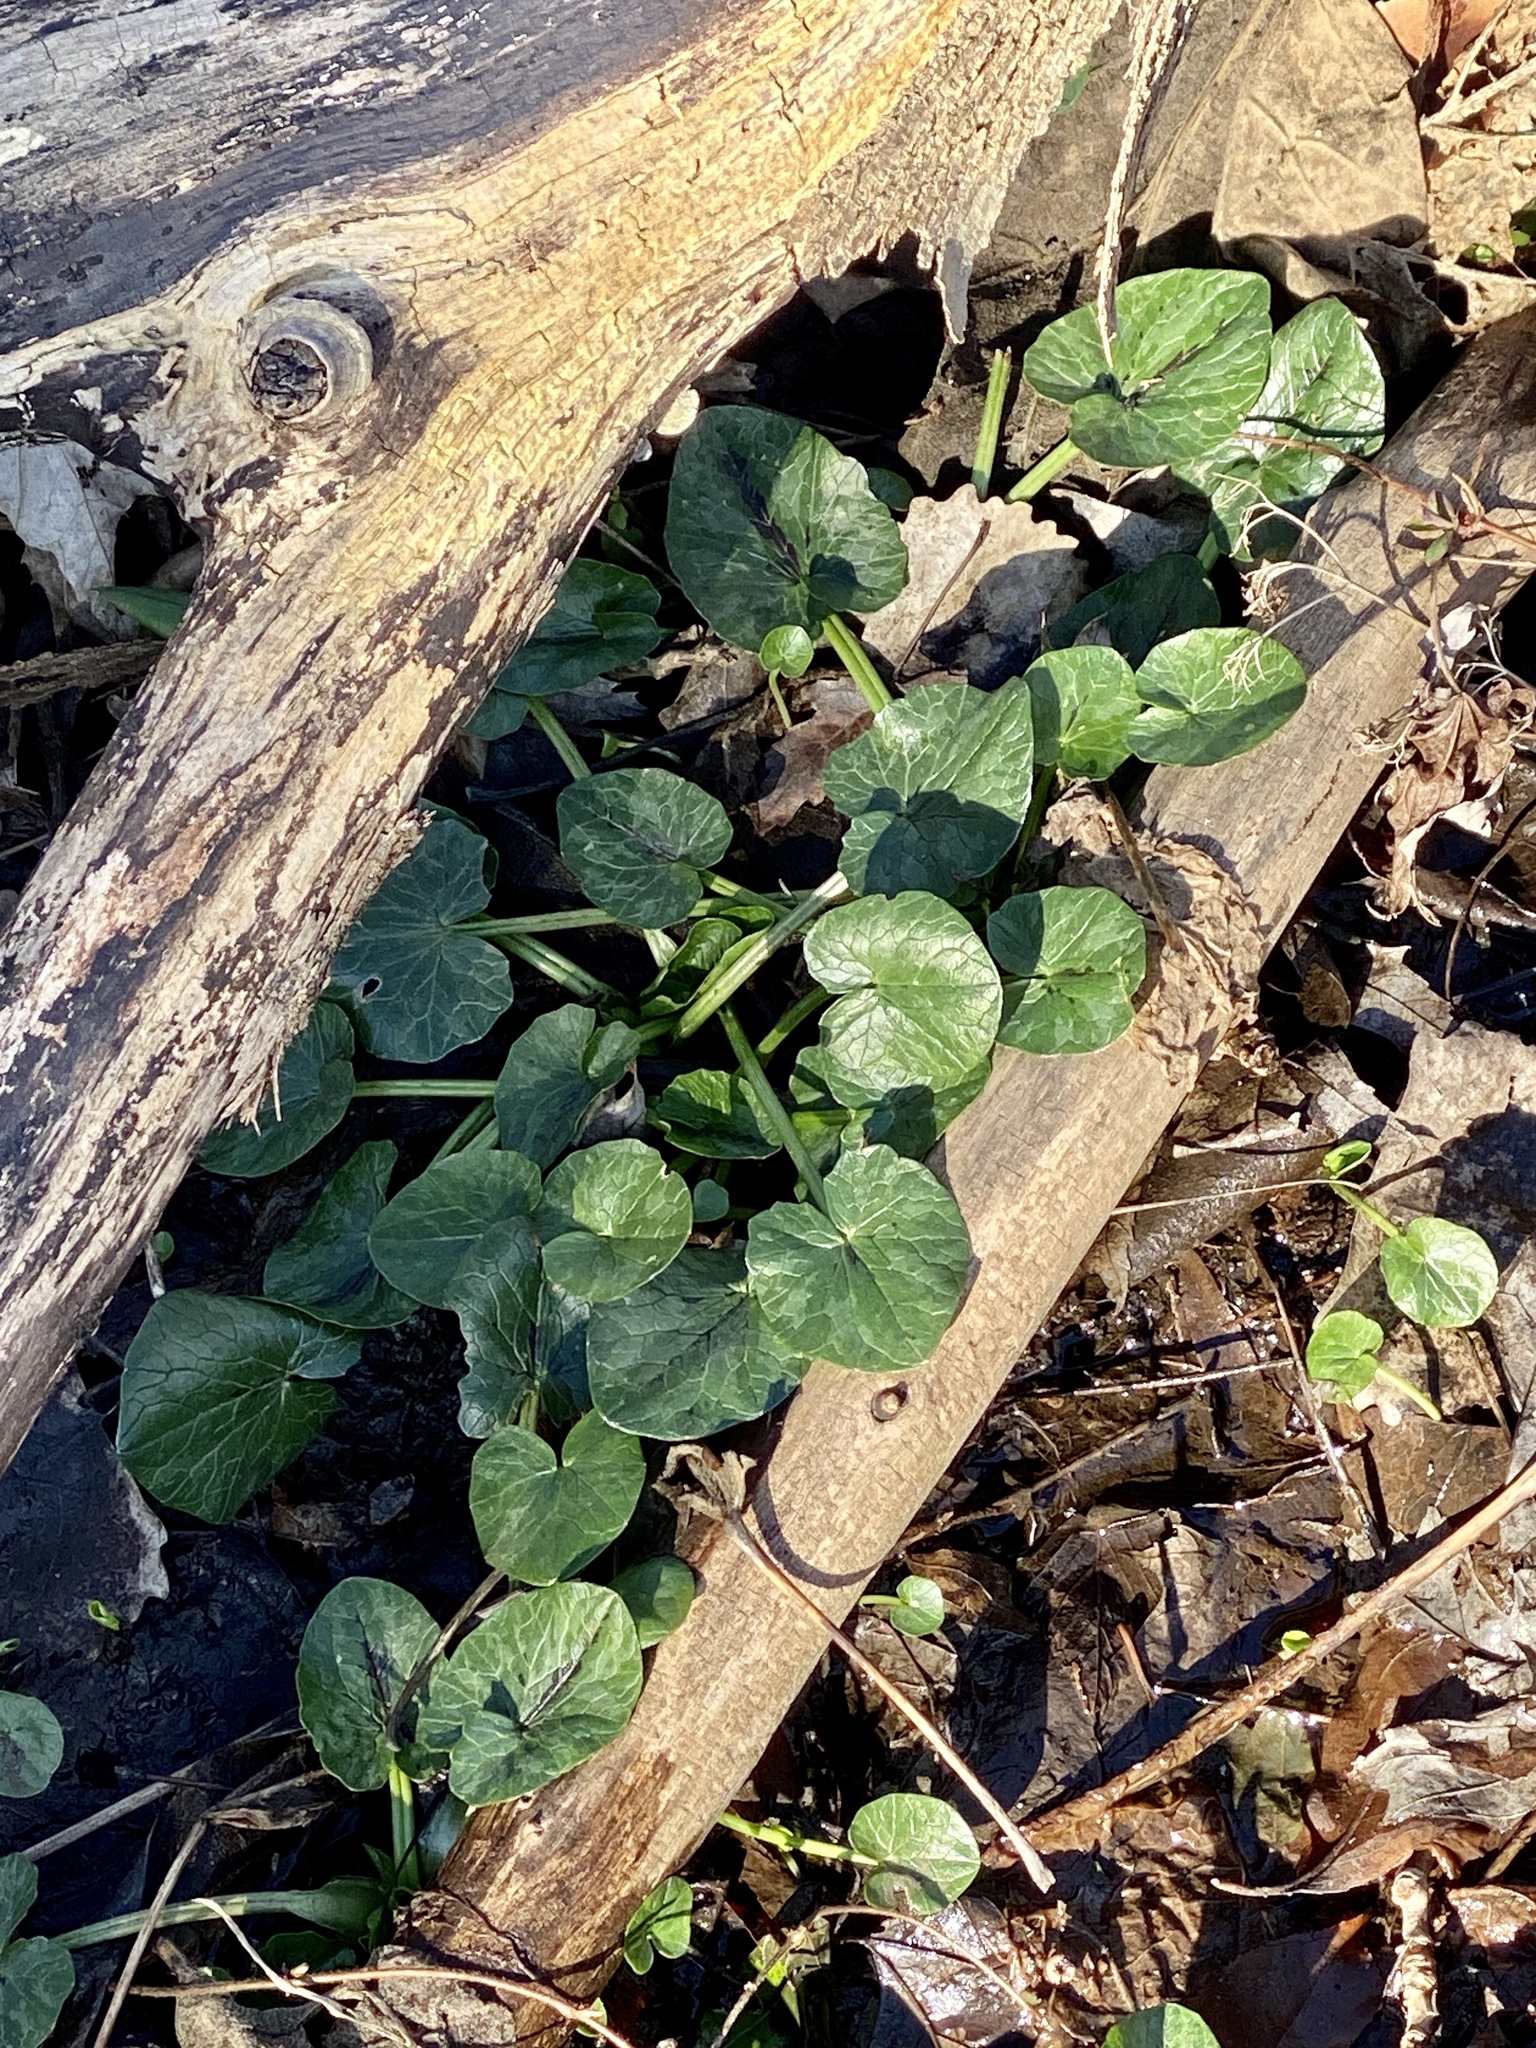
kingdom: Plantae
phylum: Tracheophyta
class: Magnoliopsida
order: Ranunculales
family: Ranunculaceae
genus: Ficaria
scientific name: Ficaria verna
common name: Lesser celandine
